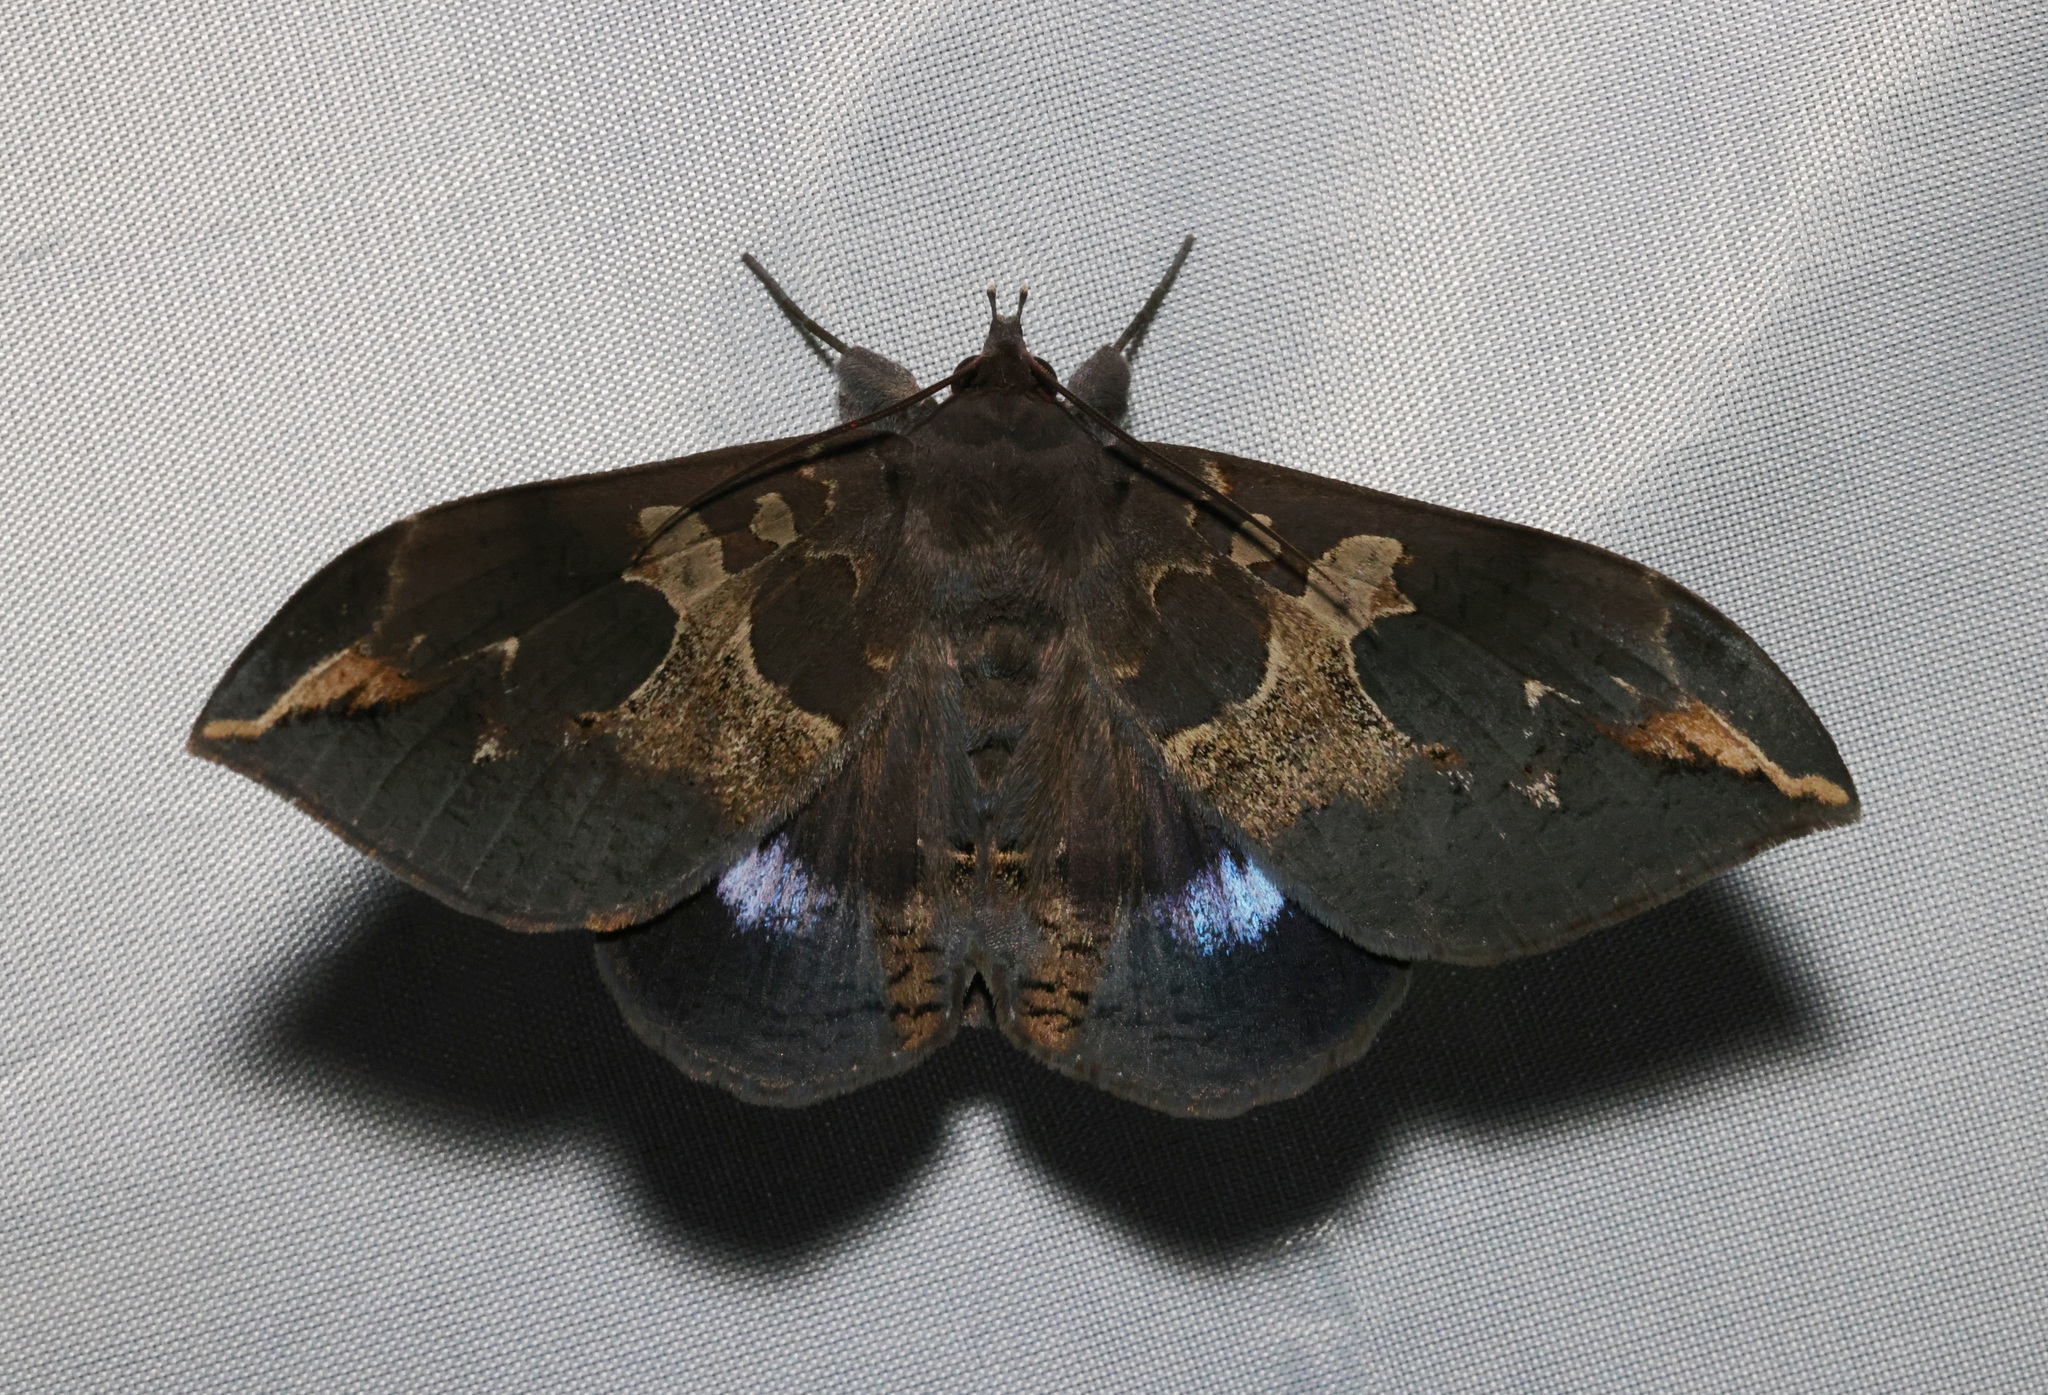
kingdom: Animalia
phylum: Arthropoda
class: Insecta
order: Lepidoptera
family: Erebidae
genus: Ischyja
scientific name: Ischyja ferrifracta
